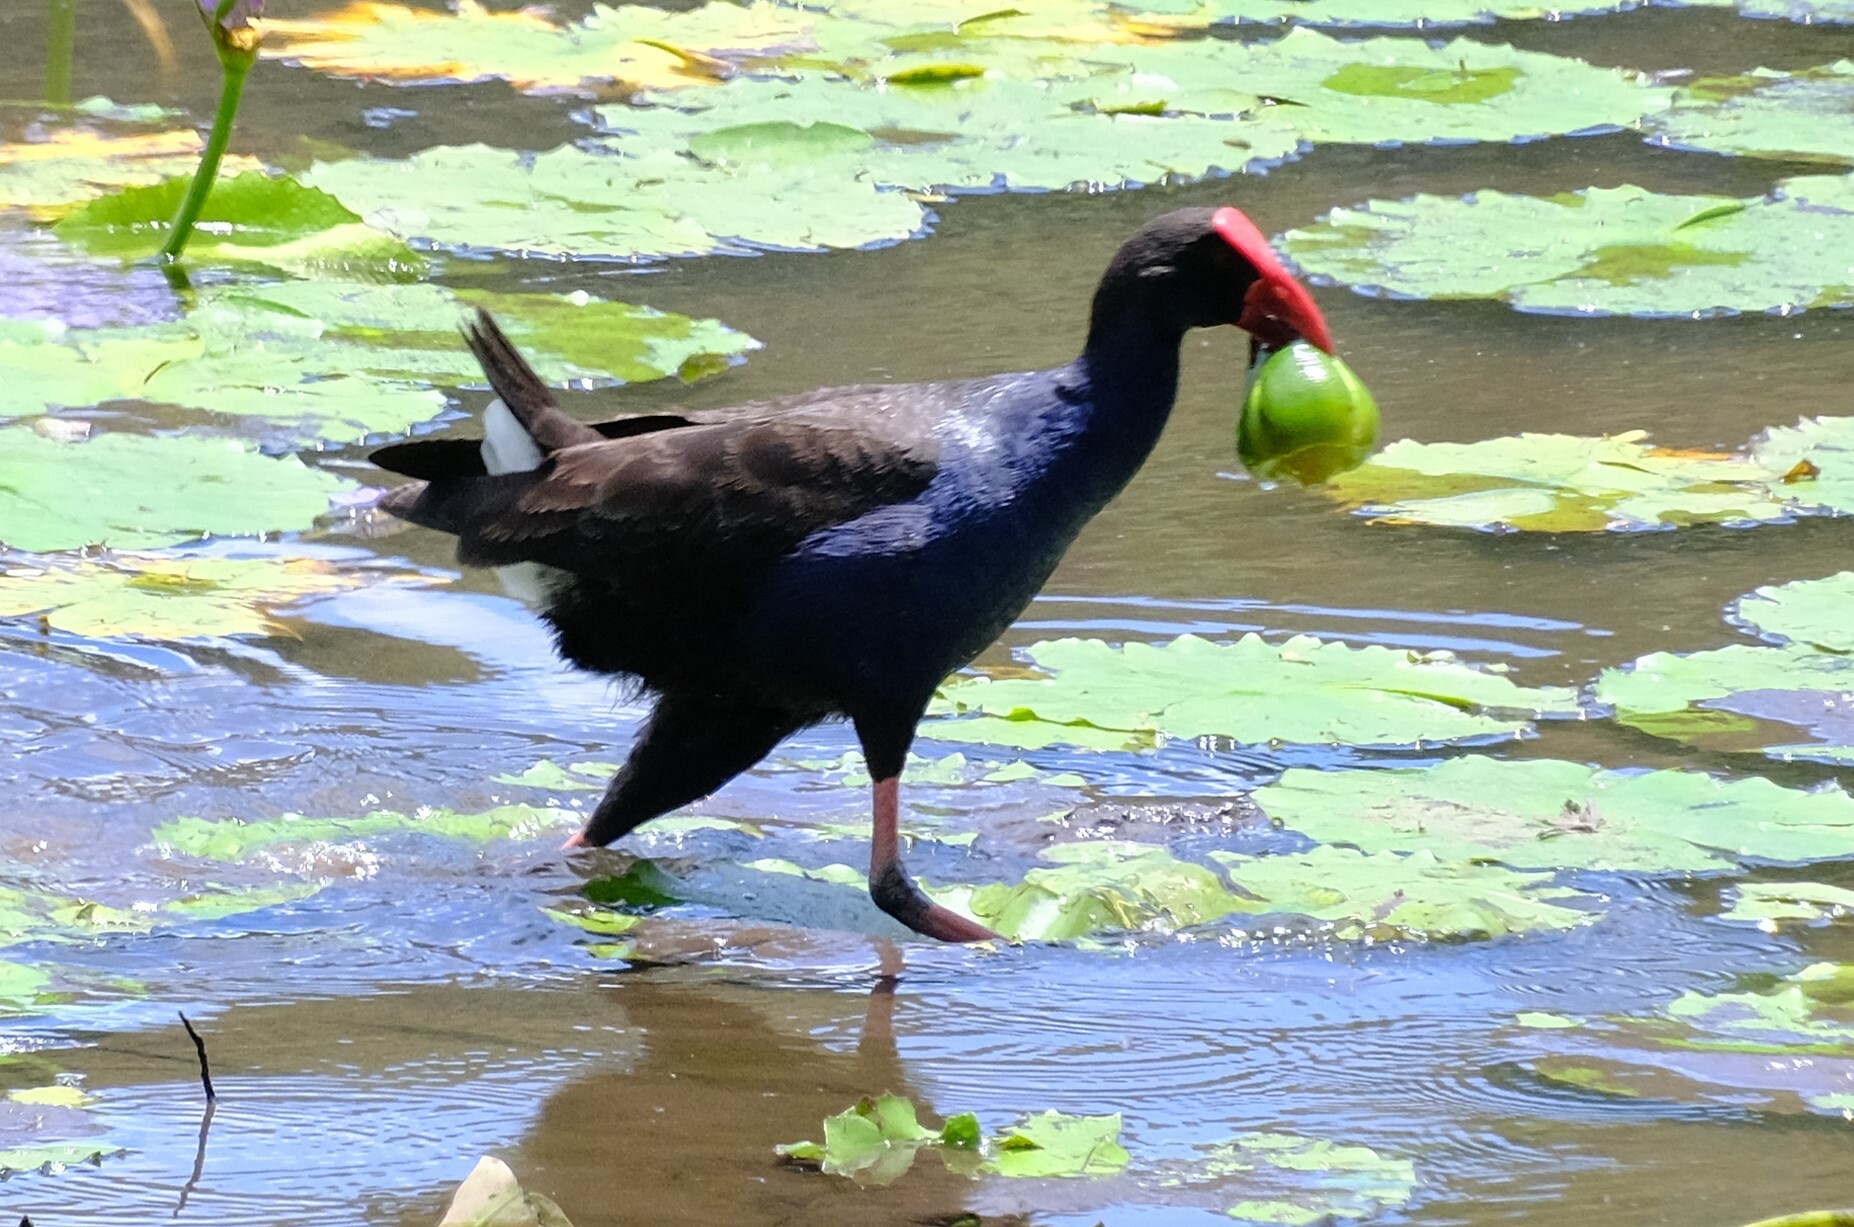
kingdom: Animalia
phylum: Chordata
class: Aves
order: Gruiformes
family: Rallidae
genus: Porphyrio
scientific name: Porphyrio melanotus
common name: Australasian swamphen
